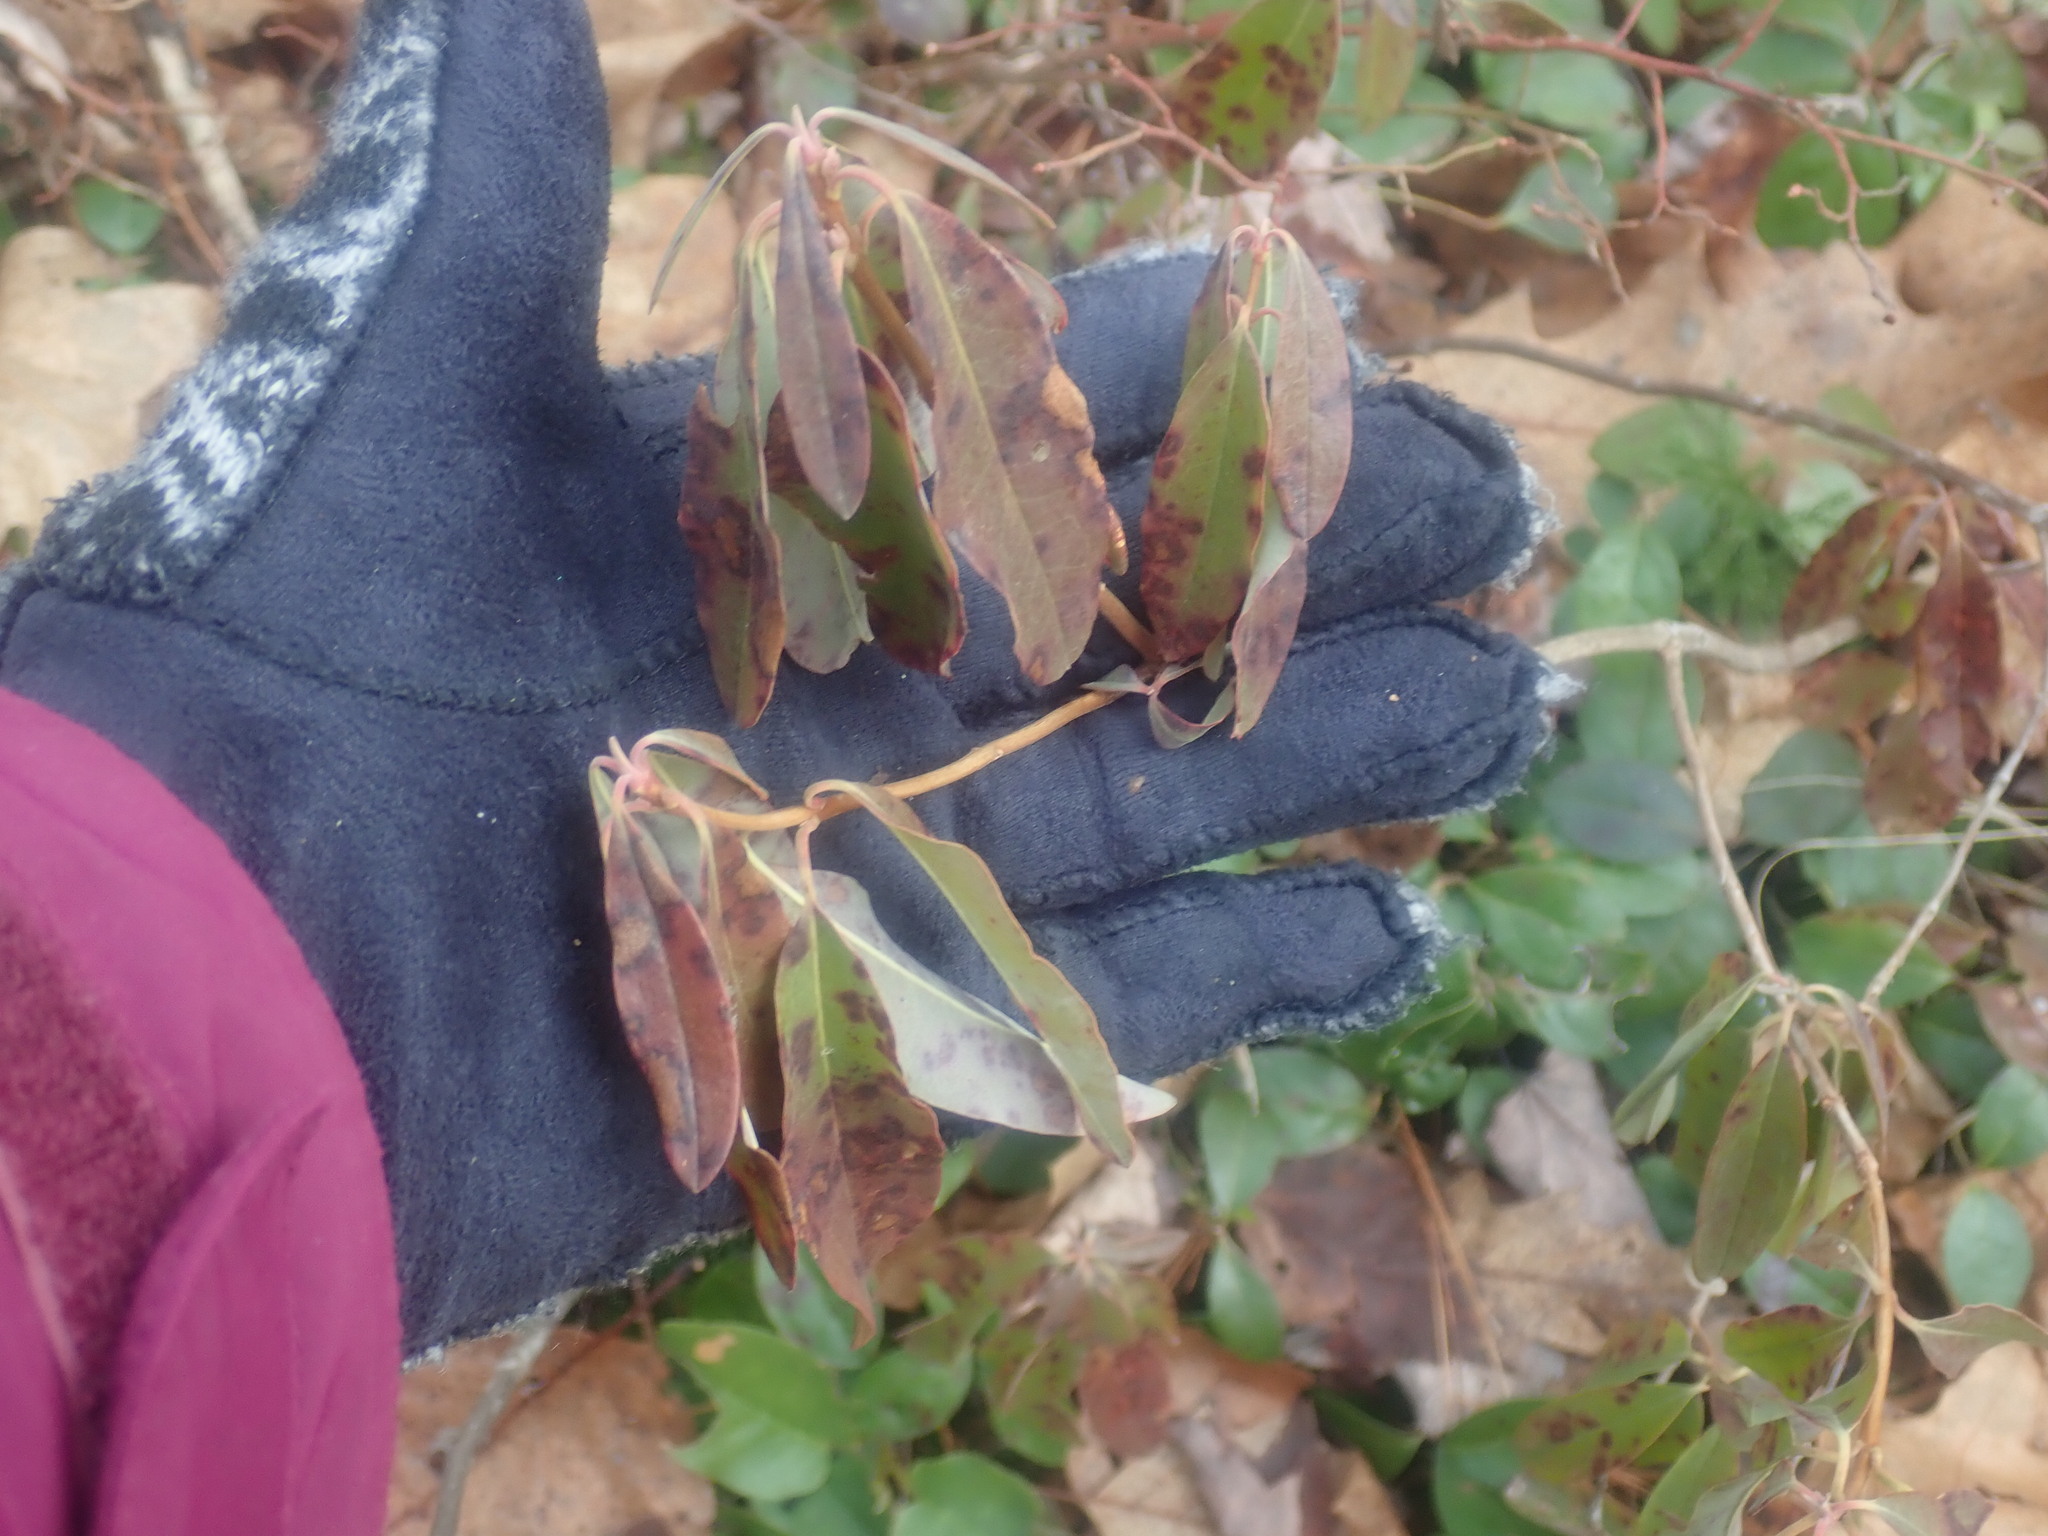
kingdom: Plantae
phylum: Tracheophyta
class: Magnoliopsida
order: Ericales
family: Ericaceae
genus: Kalmia
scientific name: Kalmia angustifolia
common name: Sheep-laurel
